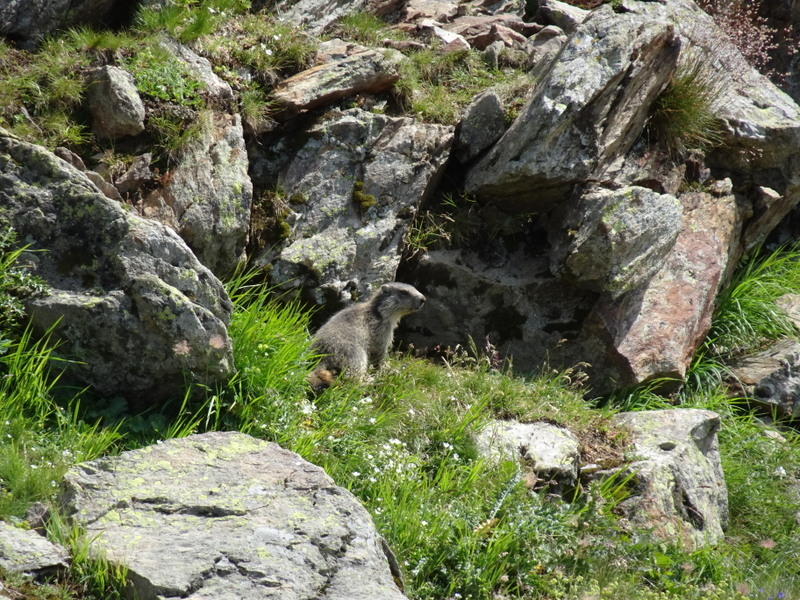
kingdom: Animalia
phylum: Chordata
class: Mammalia
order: Rodentia
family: Sciuridae
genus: Marmota
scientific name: Marmota marmota
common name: Alpine marmot
